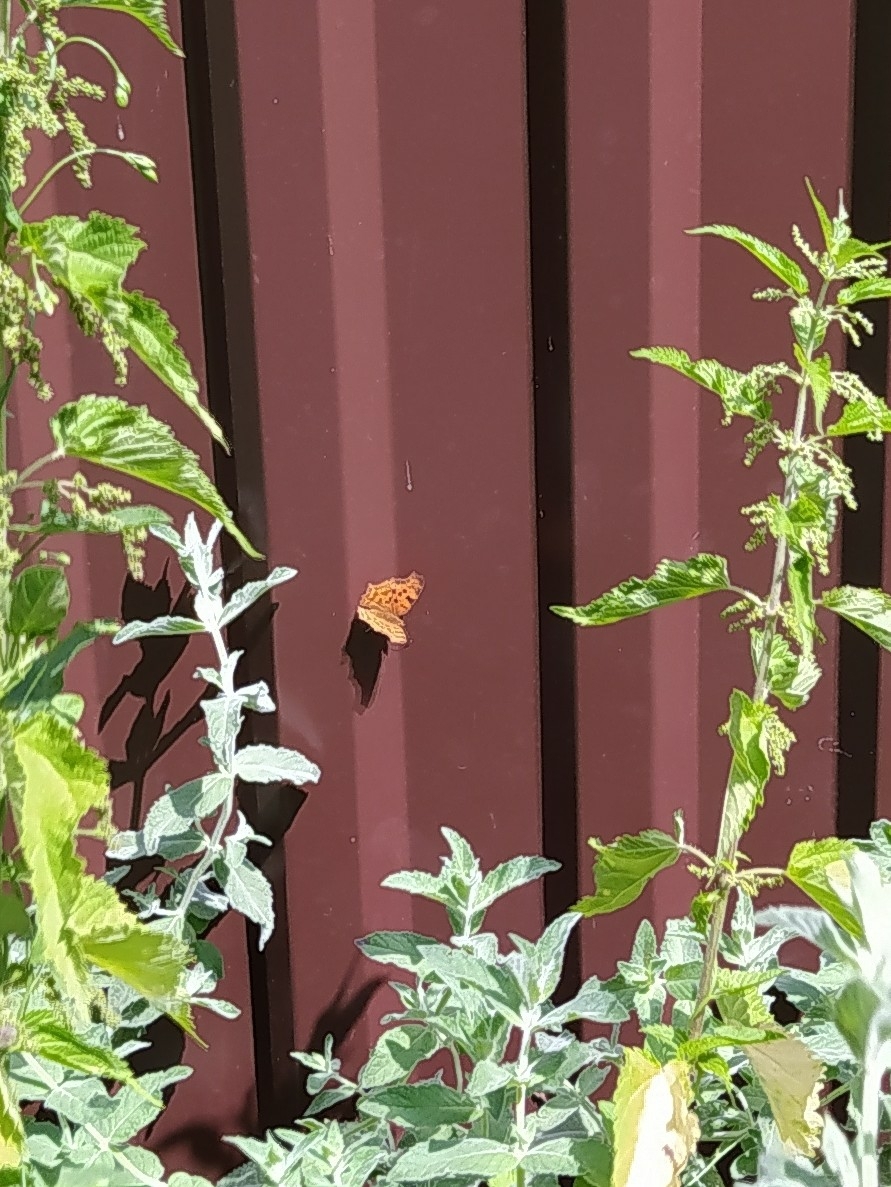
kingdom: Animalia
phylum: Arthropoda
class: Insecta
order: Lepidoptera
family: Nymphalidae
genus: Polygonia
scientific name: Polygonia c-album
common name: Comma
